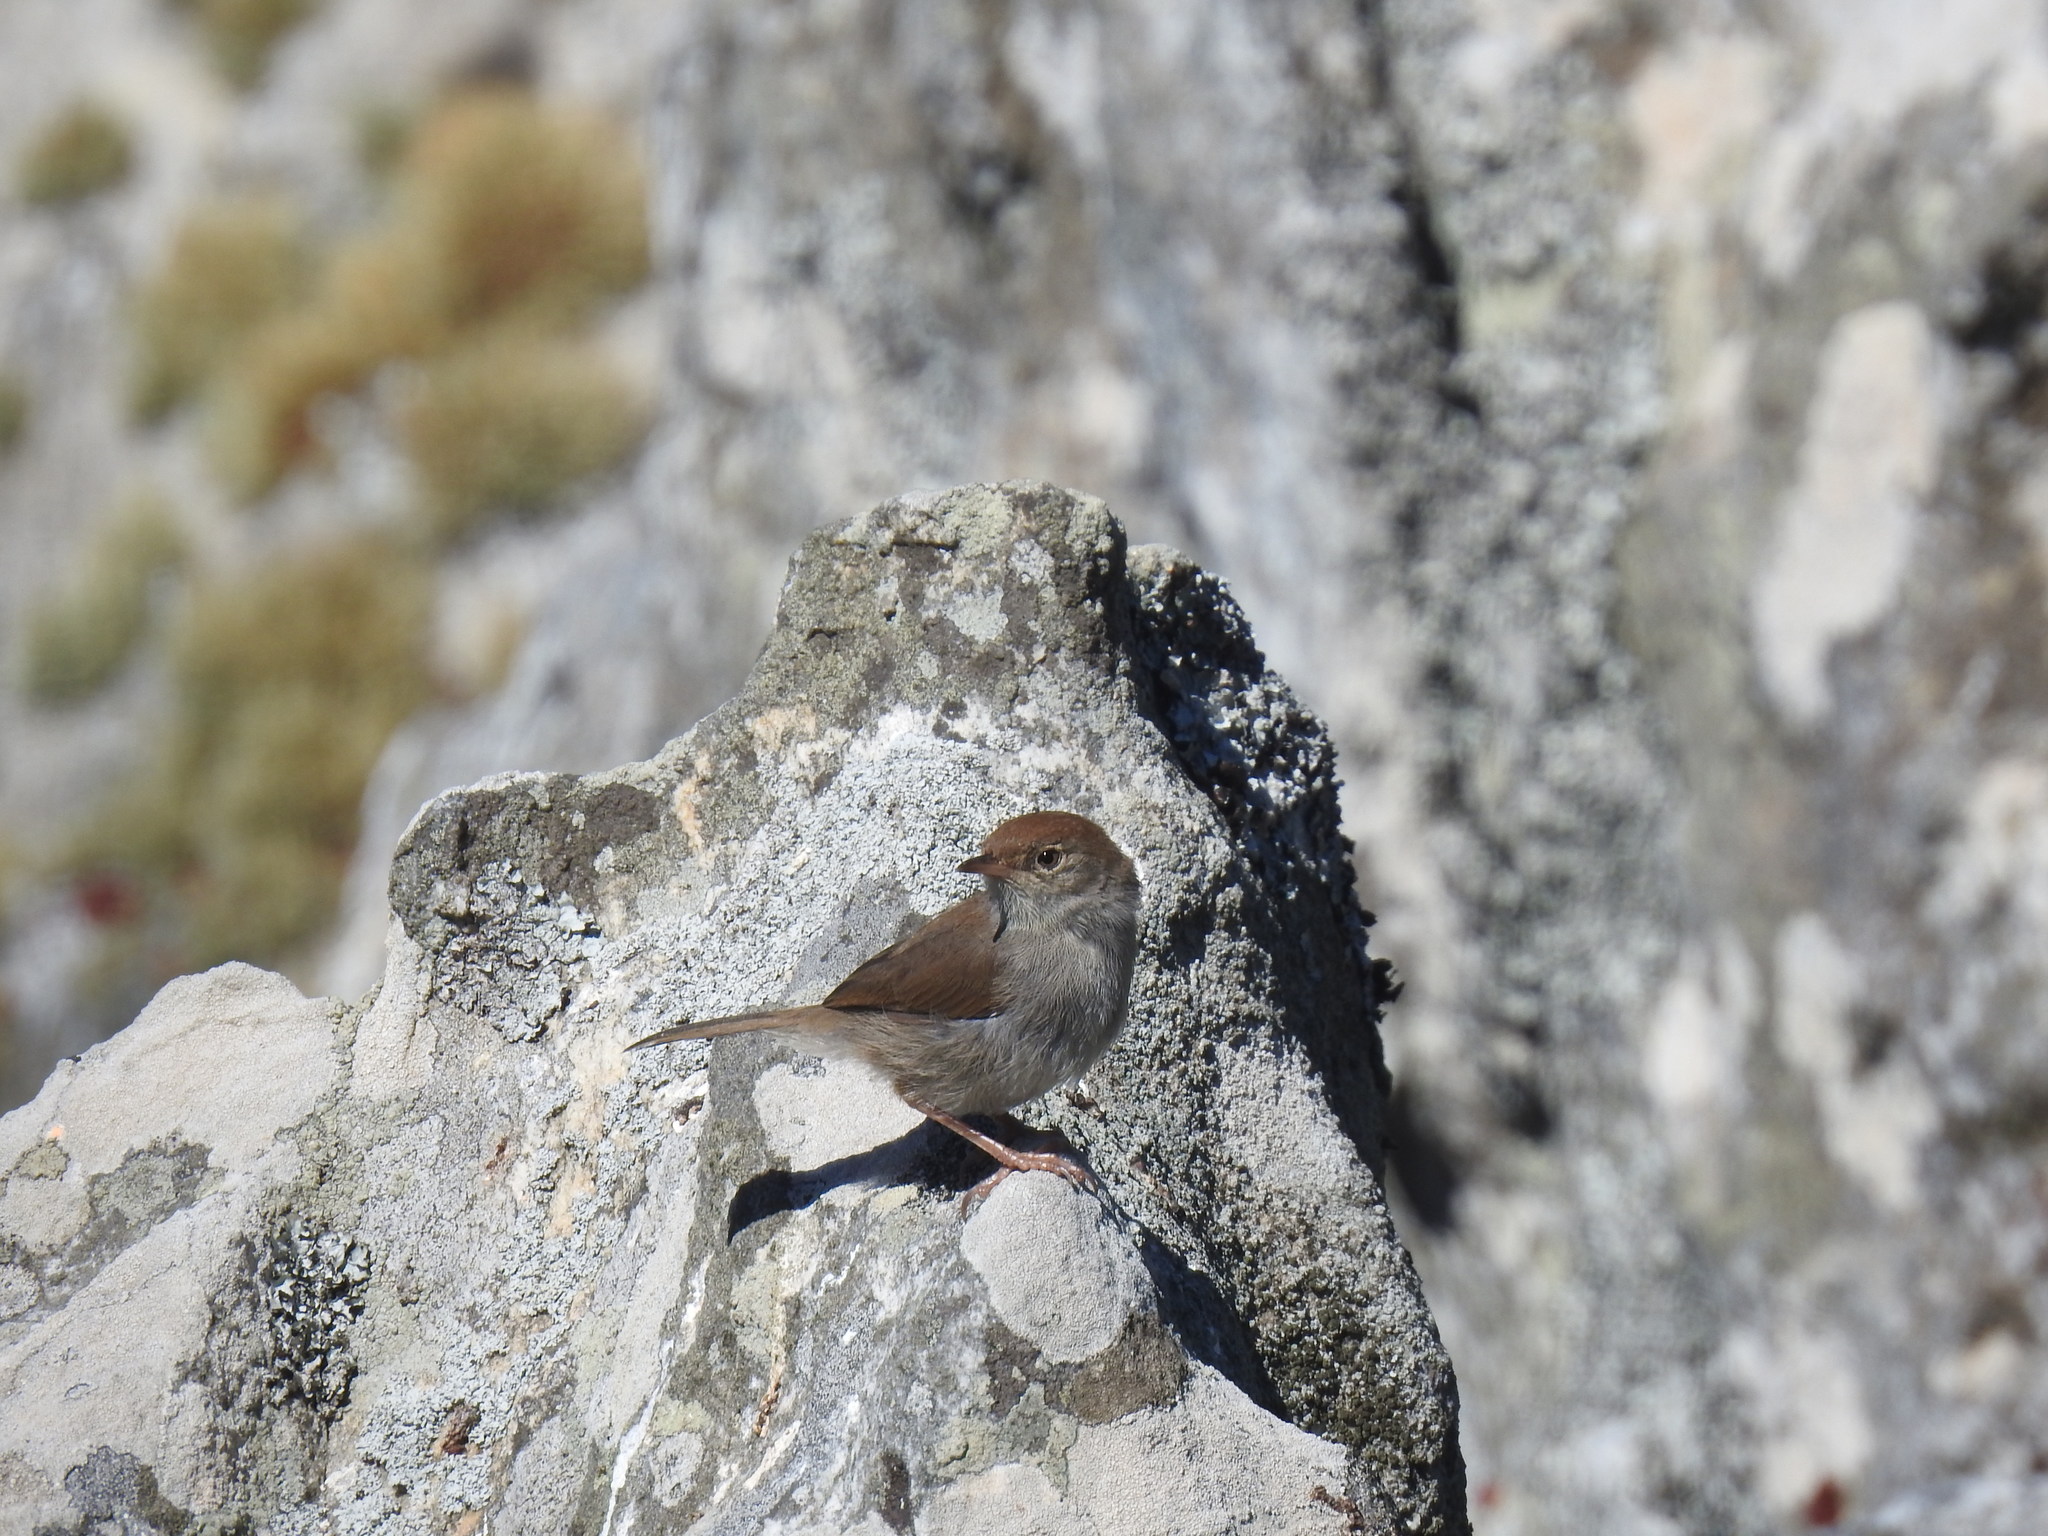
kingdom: Animalia
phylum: Chordata
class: Aves
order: Passeriformes
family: Cisticolidae
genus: Cisticola
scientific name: Cisticola fulvicapilla
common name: Neddicky
